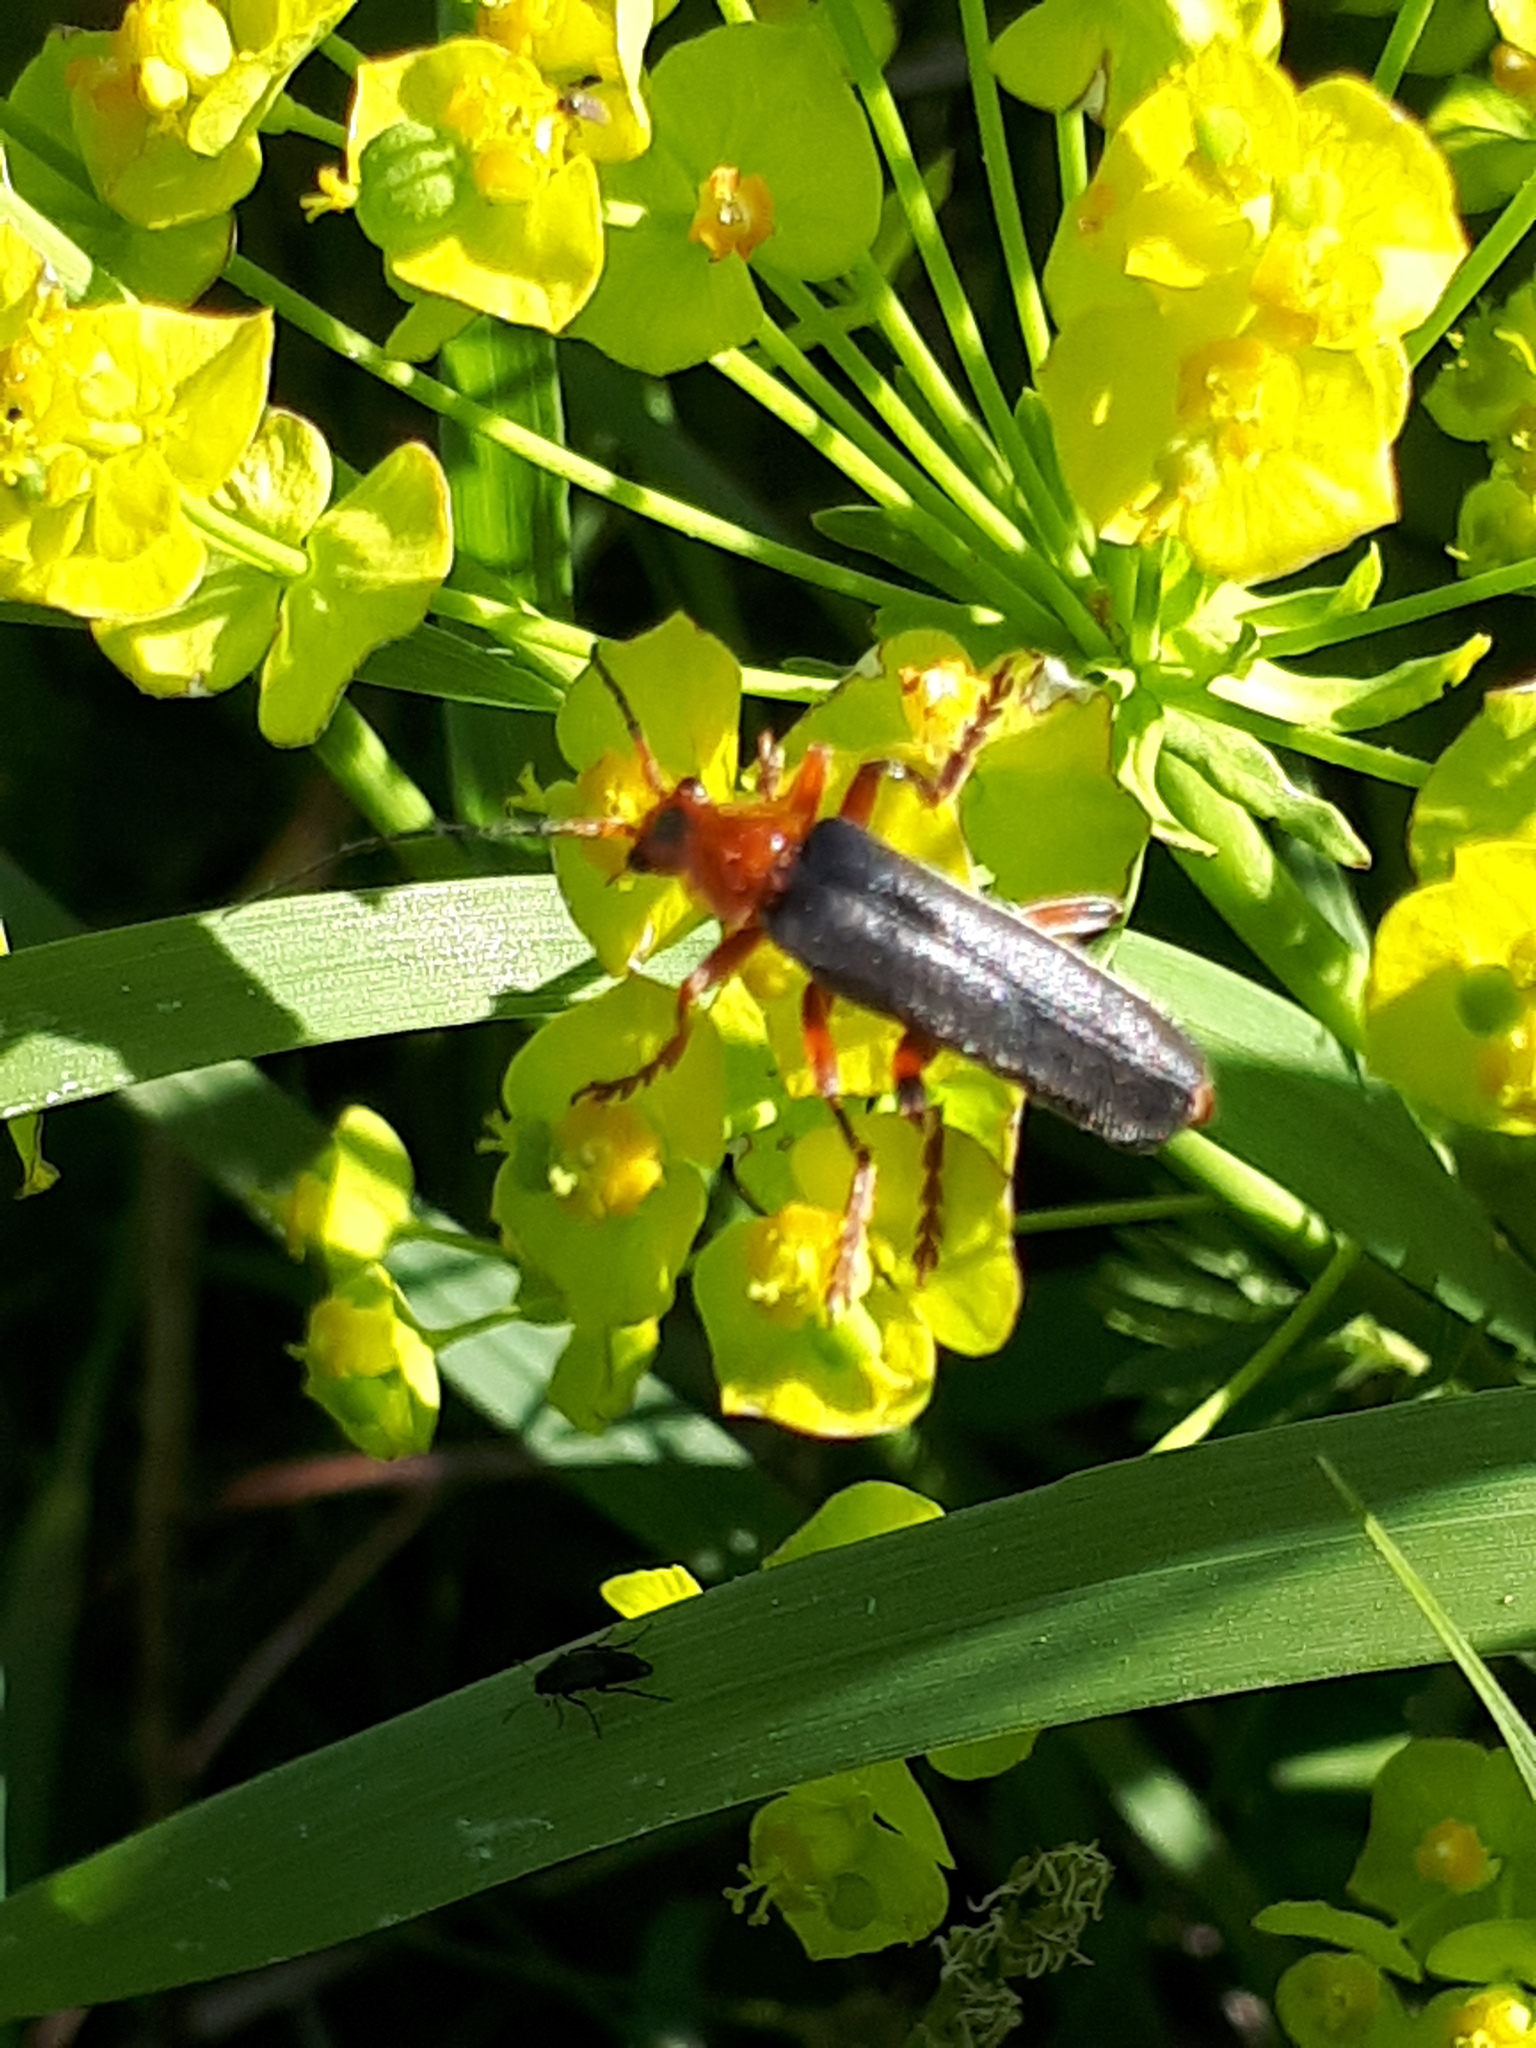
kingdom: Animalia
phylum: Arthropoda
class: Insecta
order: Coleoptera
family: Cantharidae
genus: Cantharis
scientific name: Cantharis livida
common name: Livid soldier beetle
